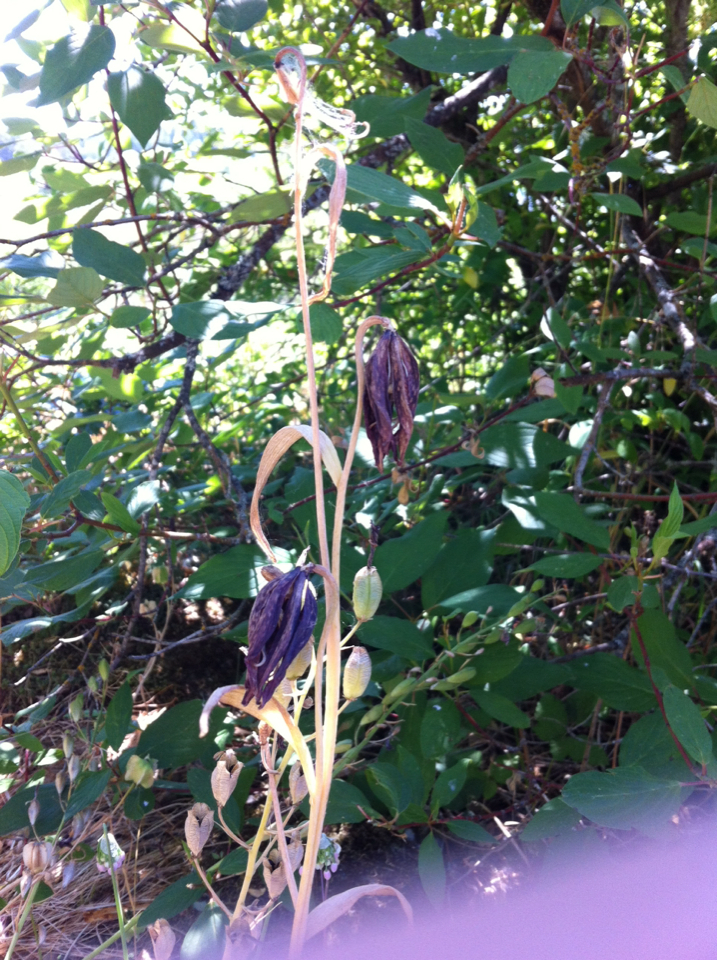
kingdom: Plantae
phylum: Tracheophyta
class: Liliopsida
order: Liliales
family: Liliaceae
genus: Fritillaria
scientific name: Fritillaria affinis
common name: Ojai fritillary
